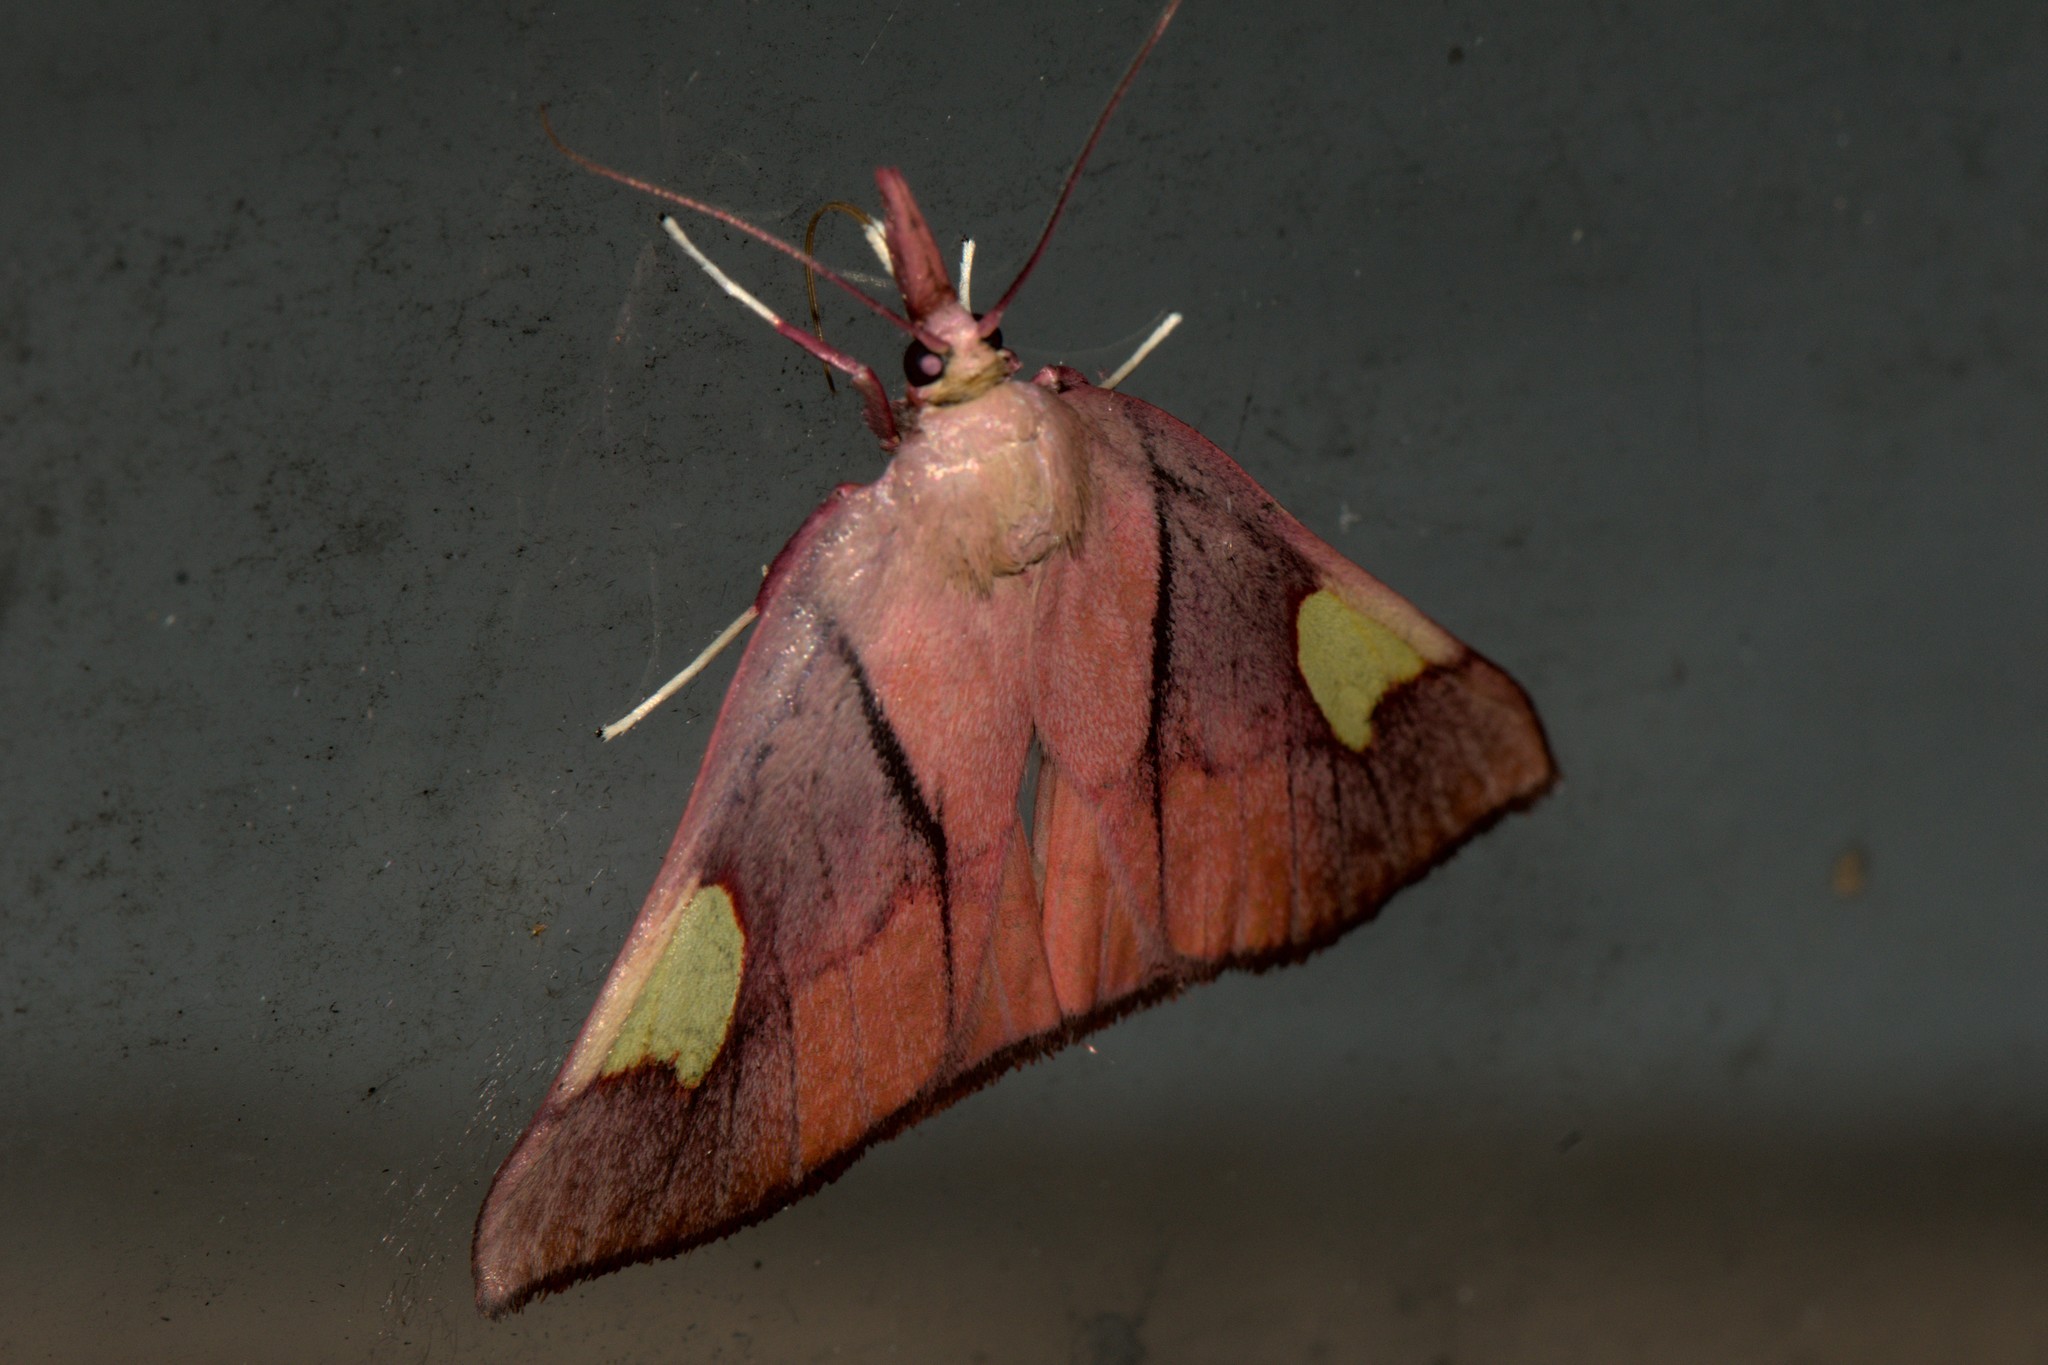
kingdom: Animalia
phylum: Arthropoda
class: Insecta
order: Lepidoptera
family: Pyralidae
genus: Orybina
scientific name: Orybina flaviplaga
